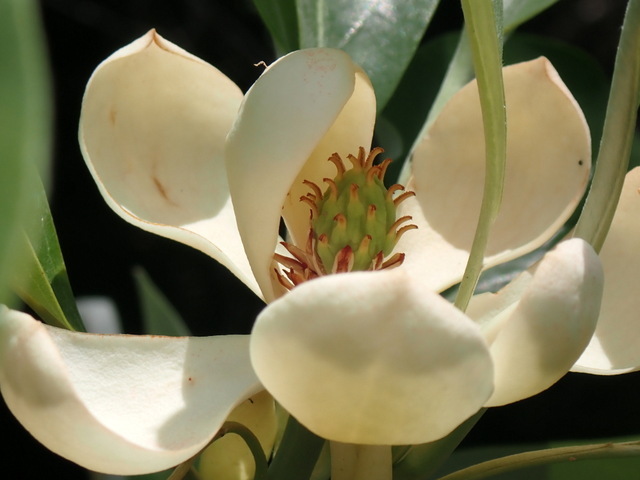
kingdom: Plantae
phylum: Tracheophyta
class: Magnoliopsida
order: Magnoliales
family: Magnoliaceae
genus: Magnolia
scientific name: Magnolia virginiana
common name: Swamp bay
